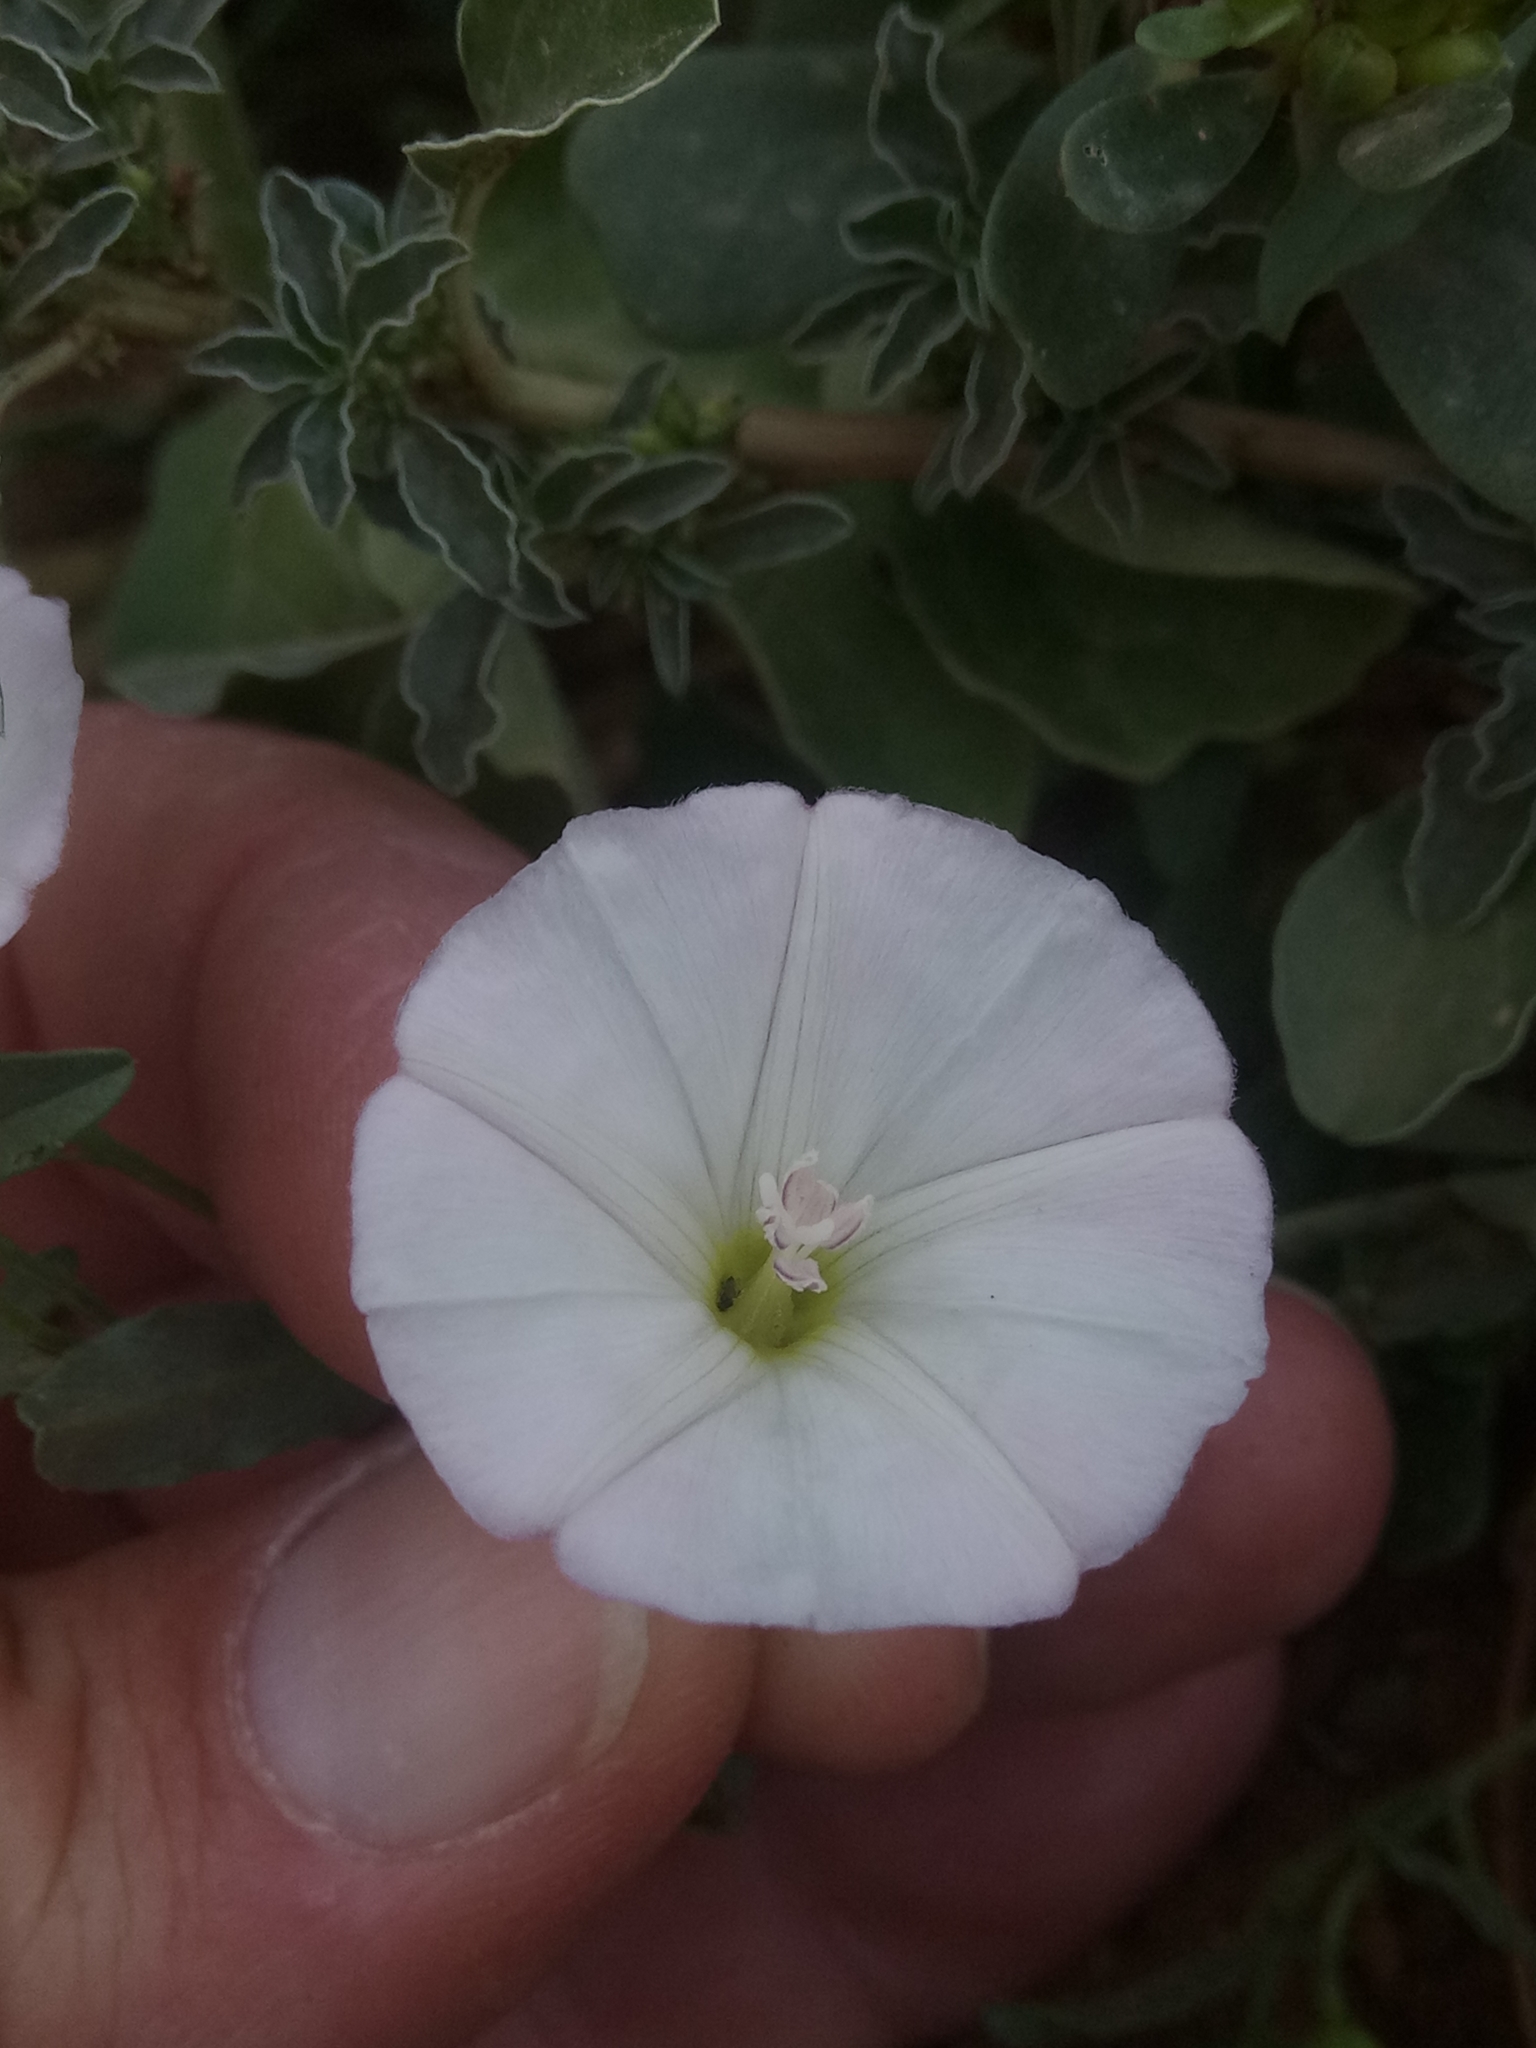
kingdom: Plantae
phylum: Tracheophyta
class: Magnoliopsida
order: Solanales
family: Convolvulaceae
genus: Convolvulus
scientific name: Convolvulus arvensis
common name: Field bindweed
